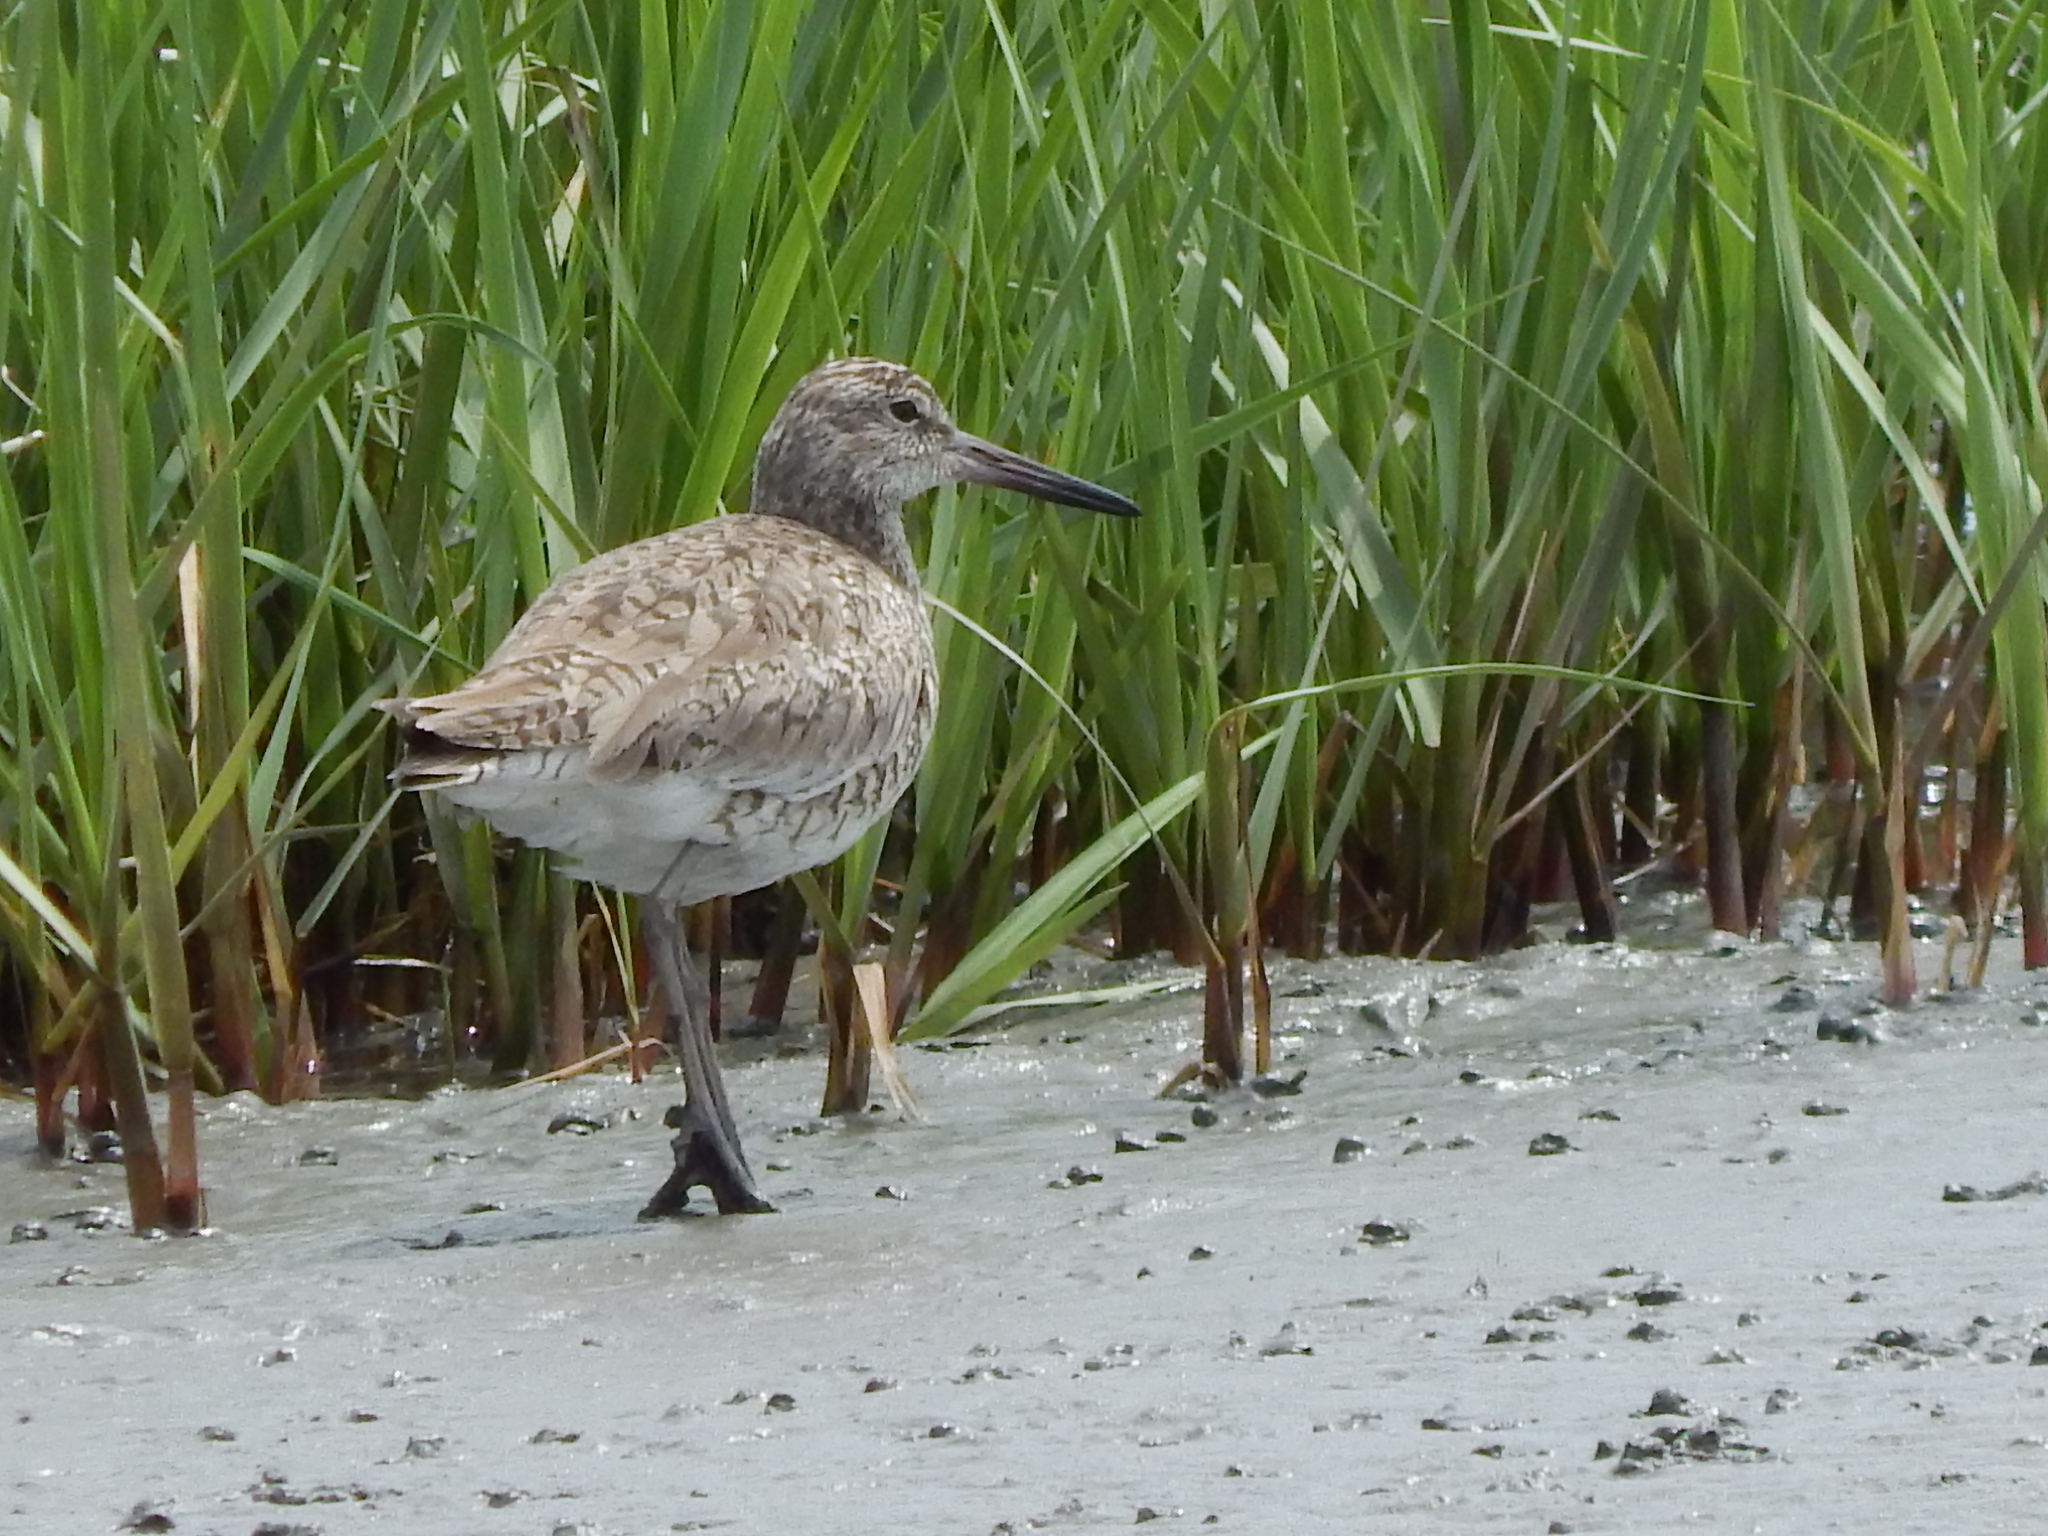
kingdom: Animalia
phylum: Chordata
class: Aves
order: Charadriiformes
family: Scolopacidae
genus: Tringa
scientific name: Tringa semipalmata
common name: Willet
